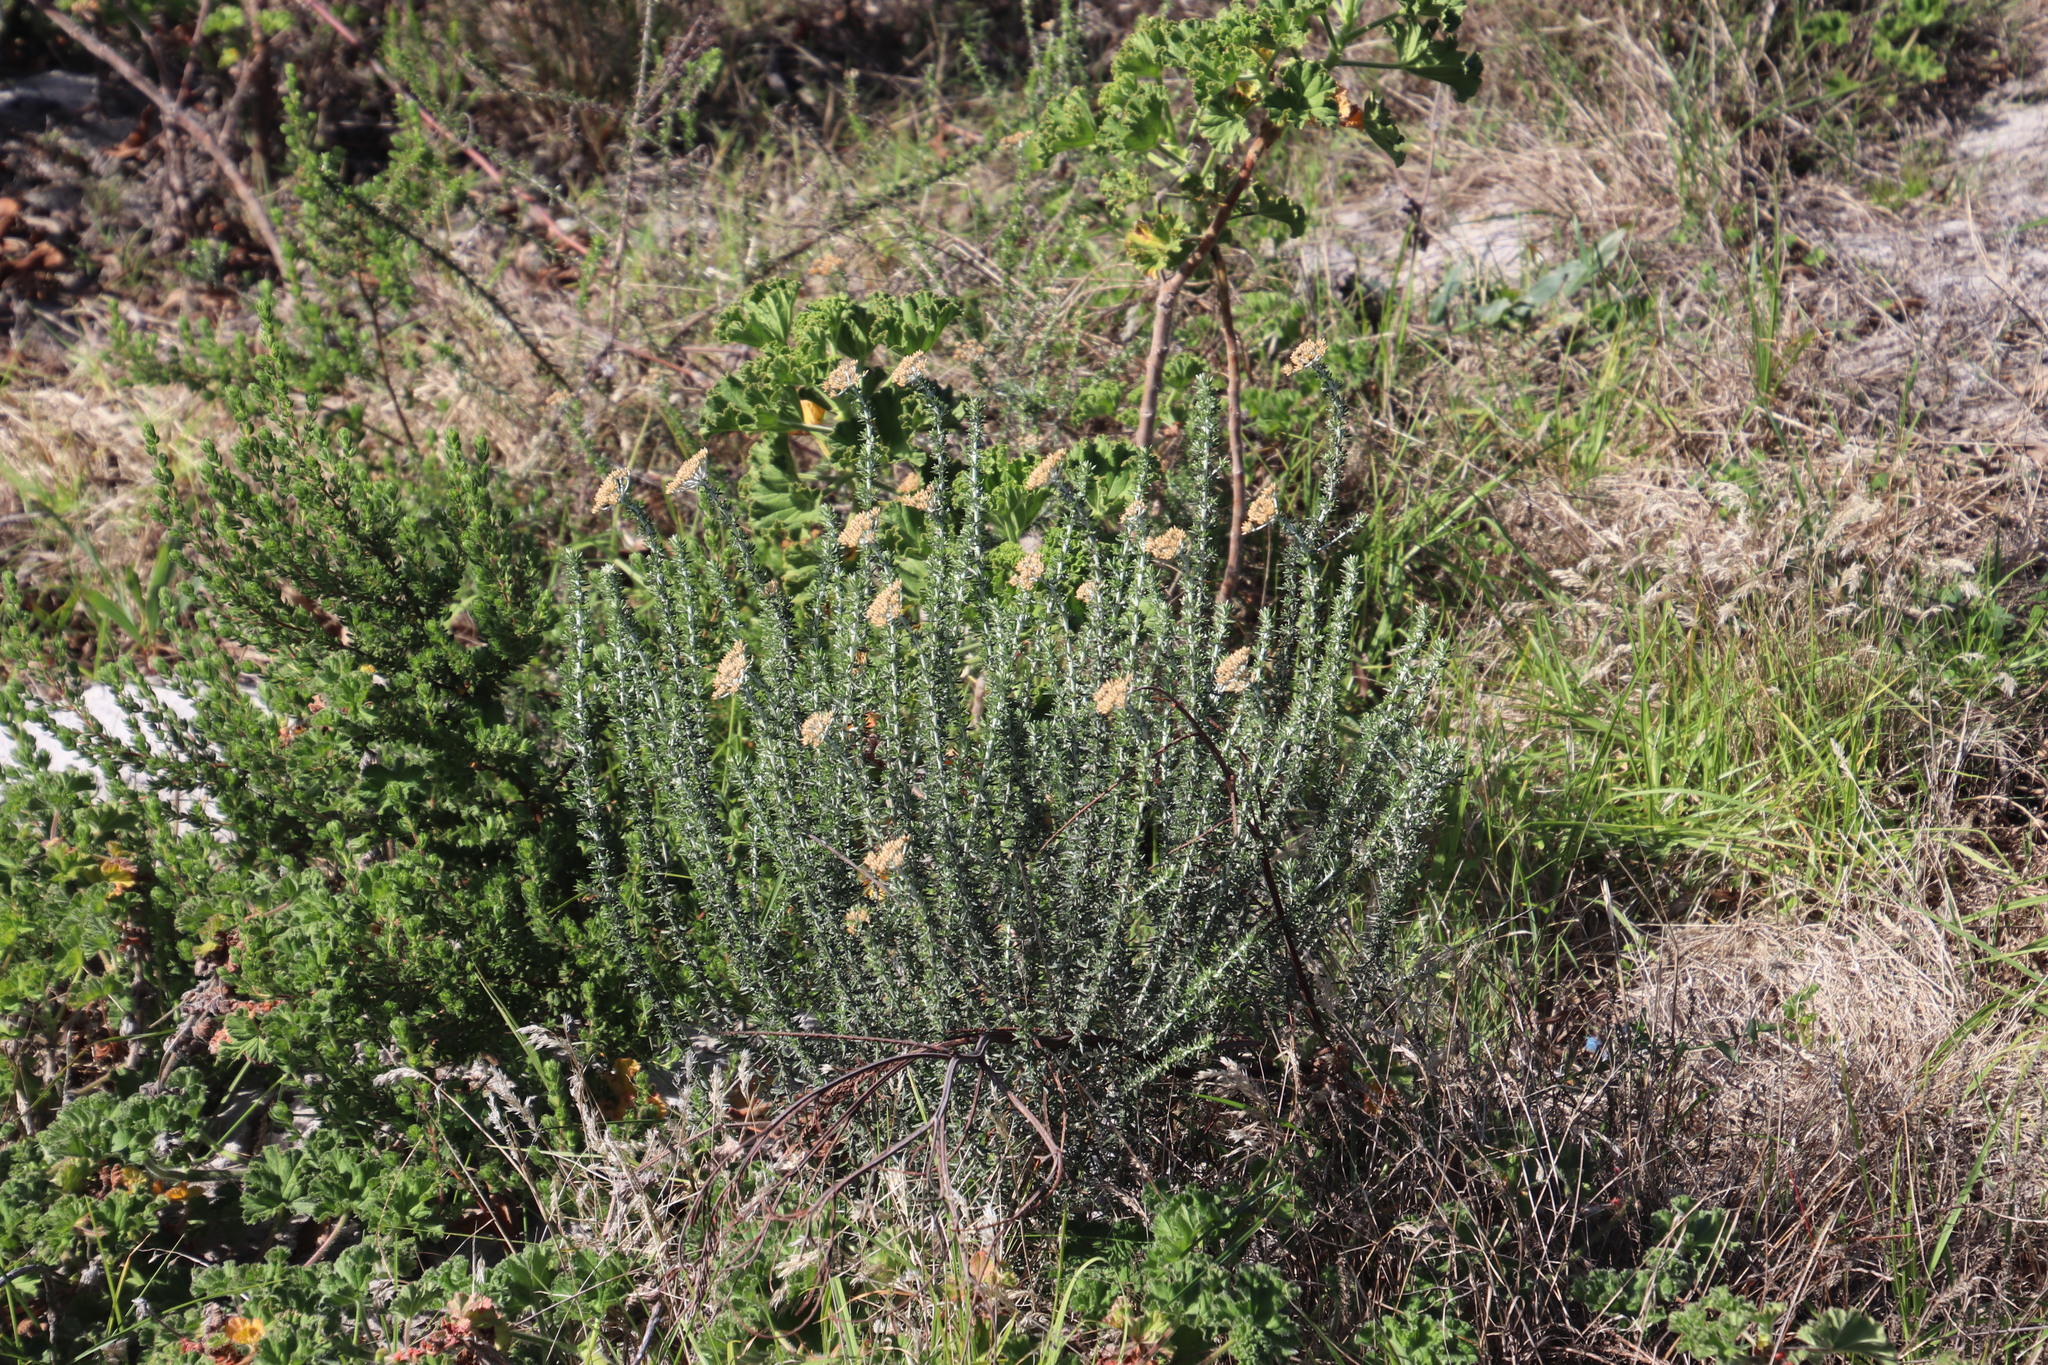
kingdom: Plantae
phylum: Tracheophyta
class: Magnoliopsida
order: Asterales
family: Asteraceae
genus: Metalasia
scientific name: Metalasia densa
